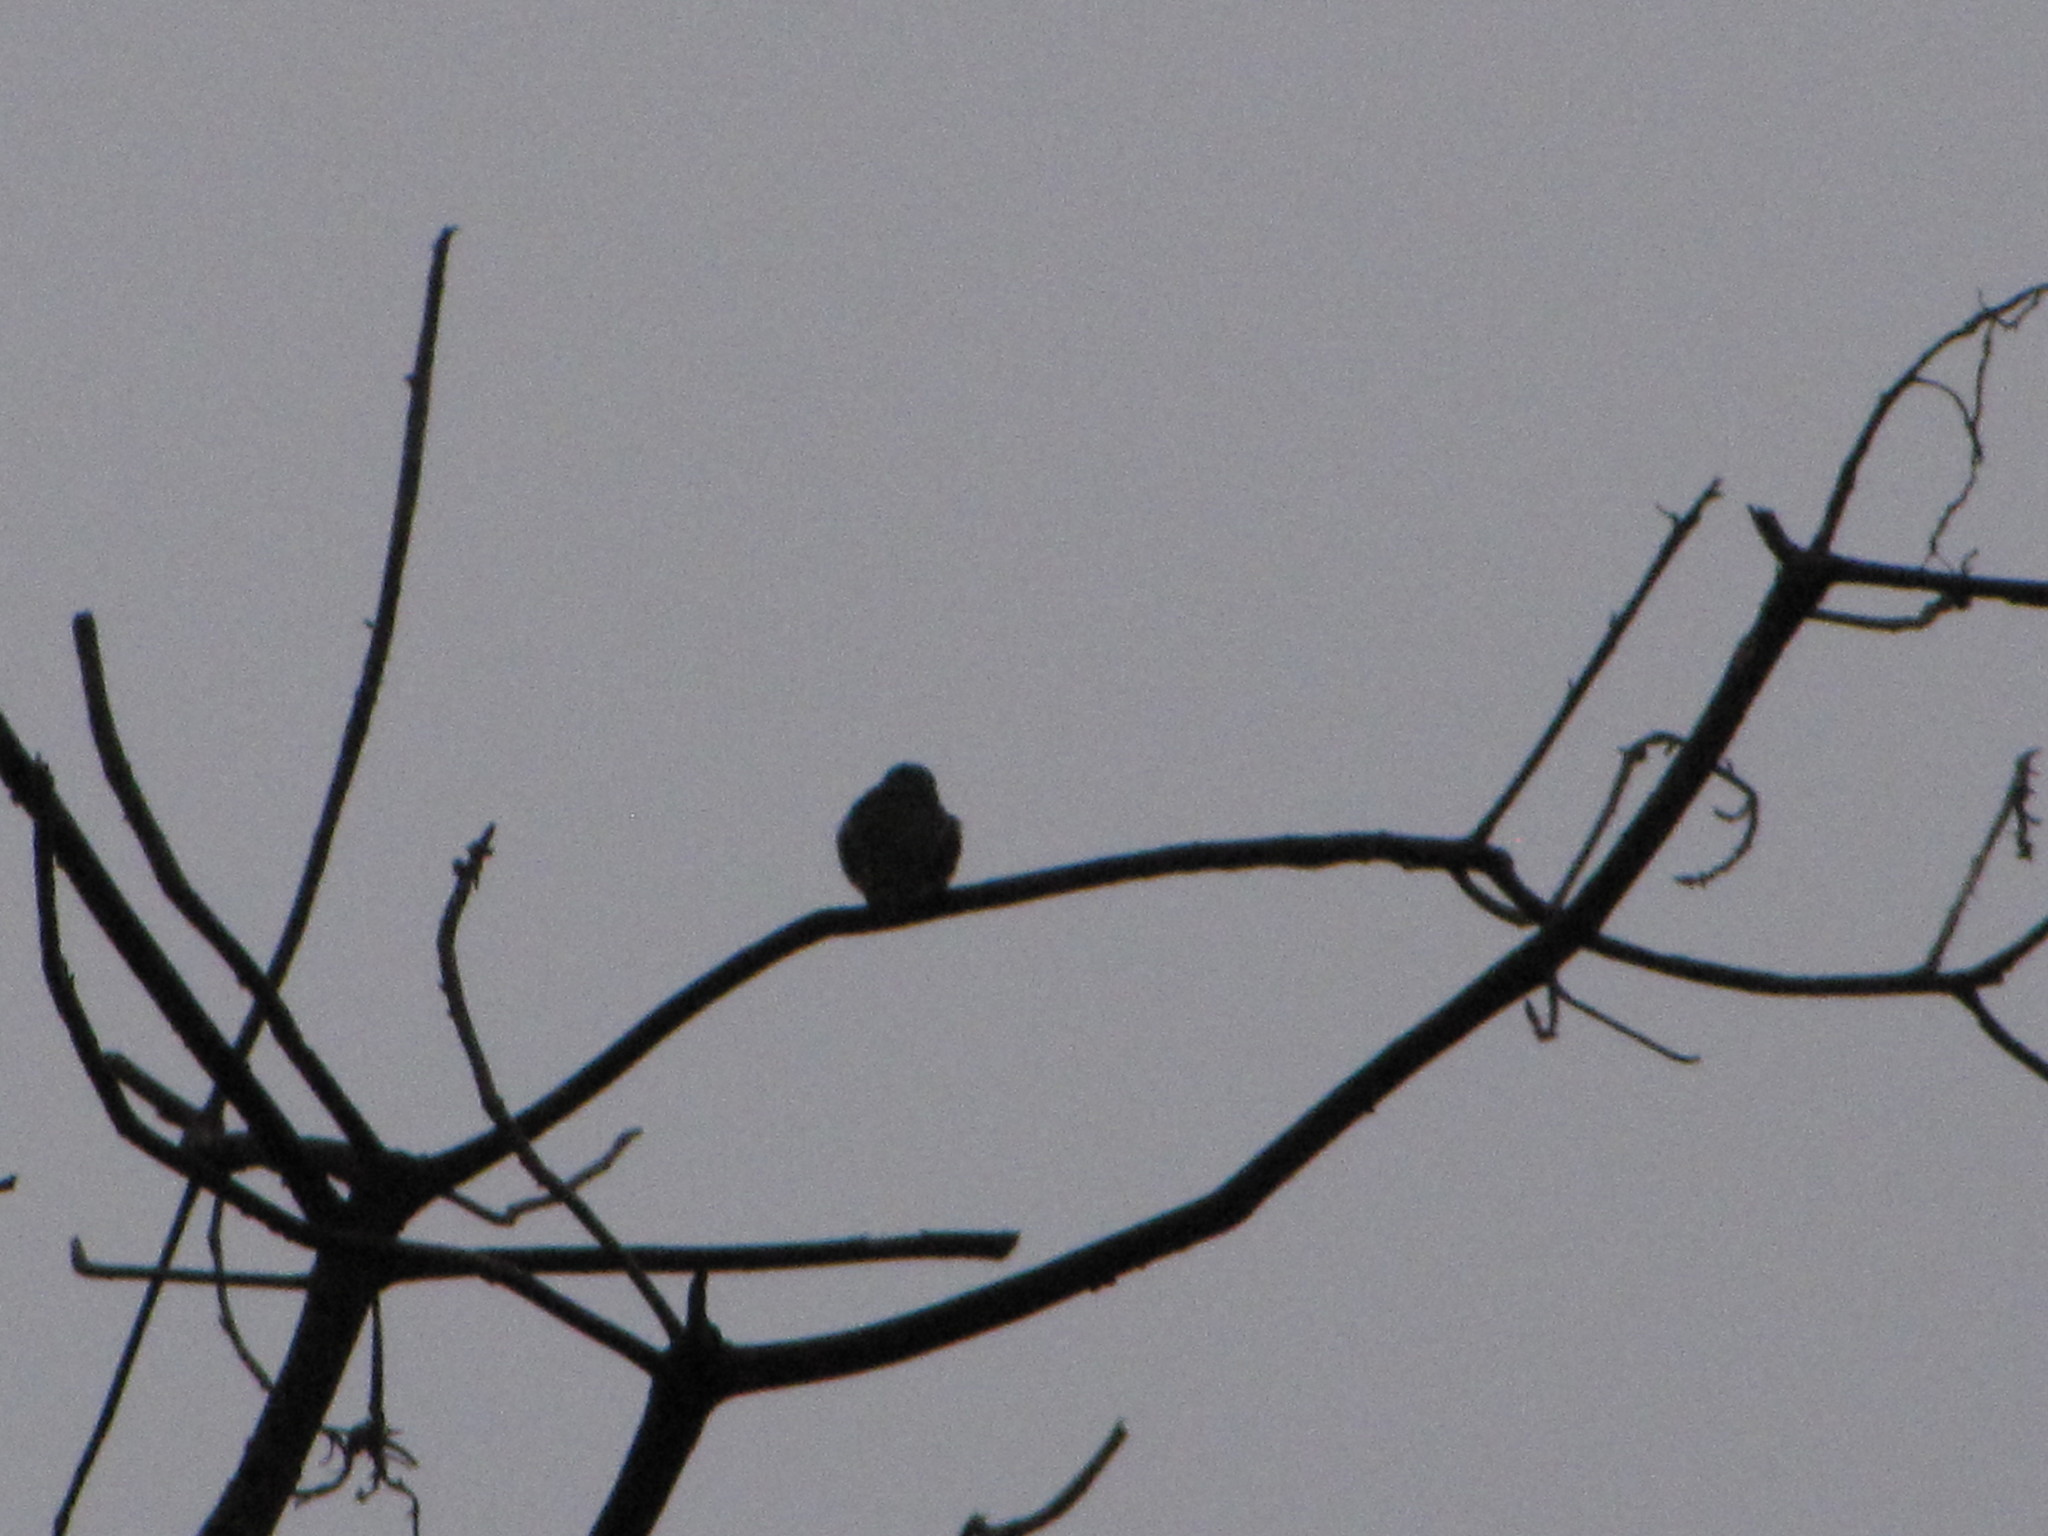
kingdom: Animalia
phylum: Chordata
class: Aves
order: Apodiformes
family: Trochilidae
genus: Calypte
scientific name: Calypte anna
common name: Anna's hummingbird
